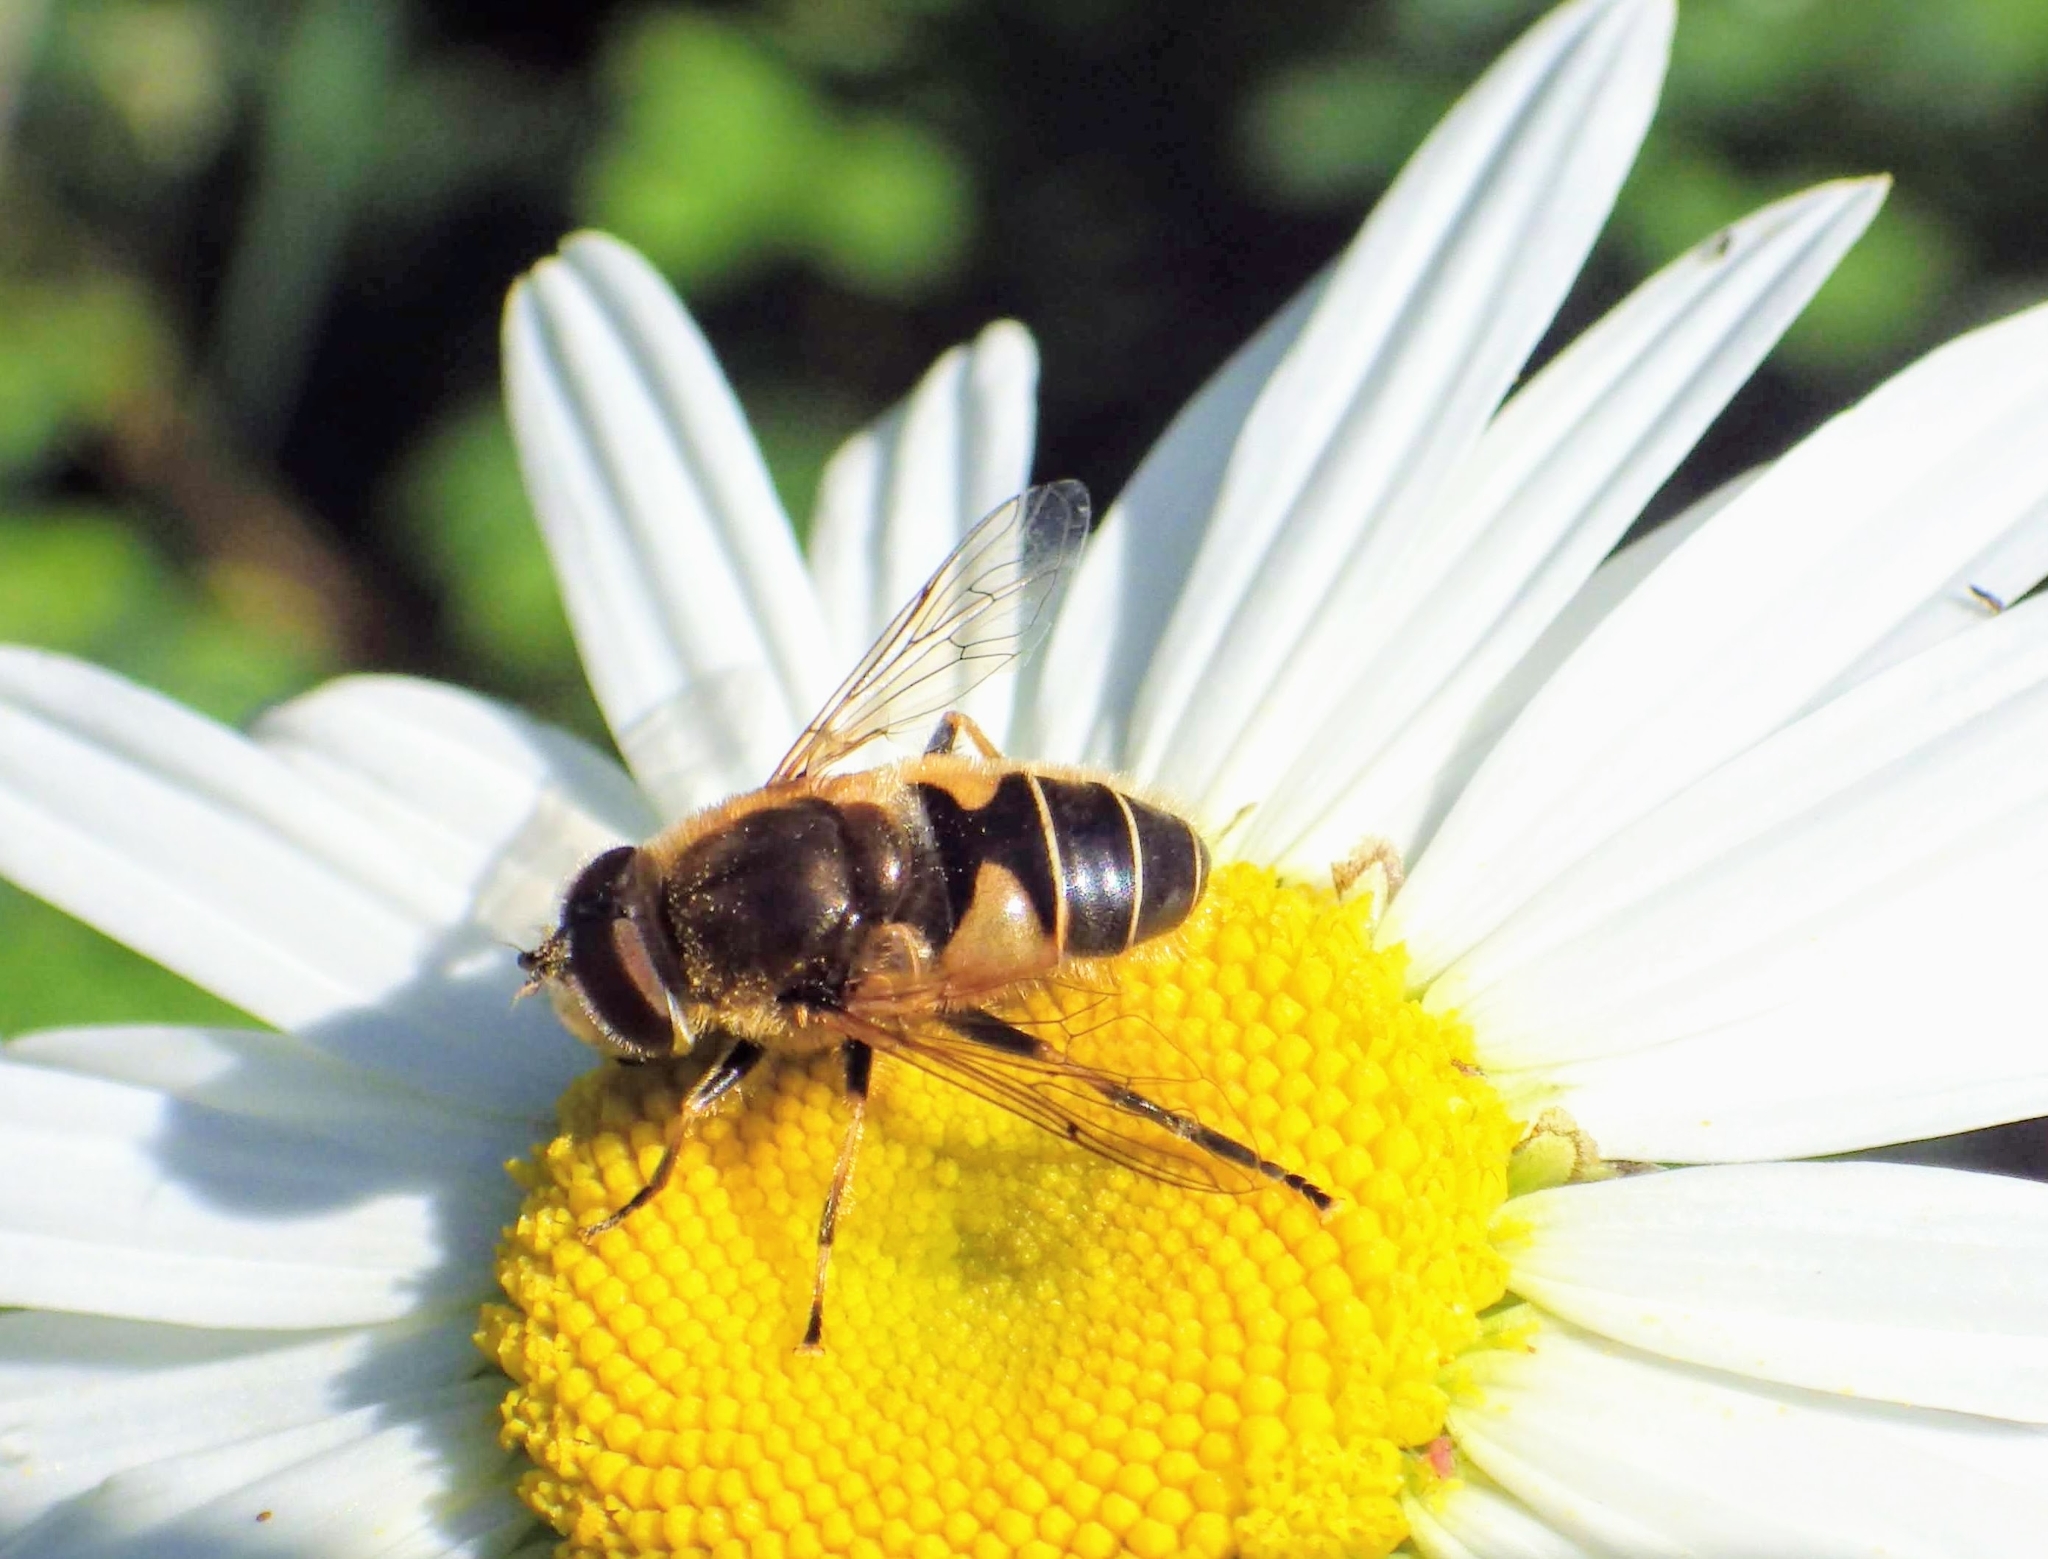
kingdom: Animalia
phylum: Arthropoda
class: Insecta
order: Diptera
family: Syrphidae
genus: Eristalis
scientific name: Eristalis nemorum
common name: Orange-spined drone fly
